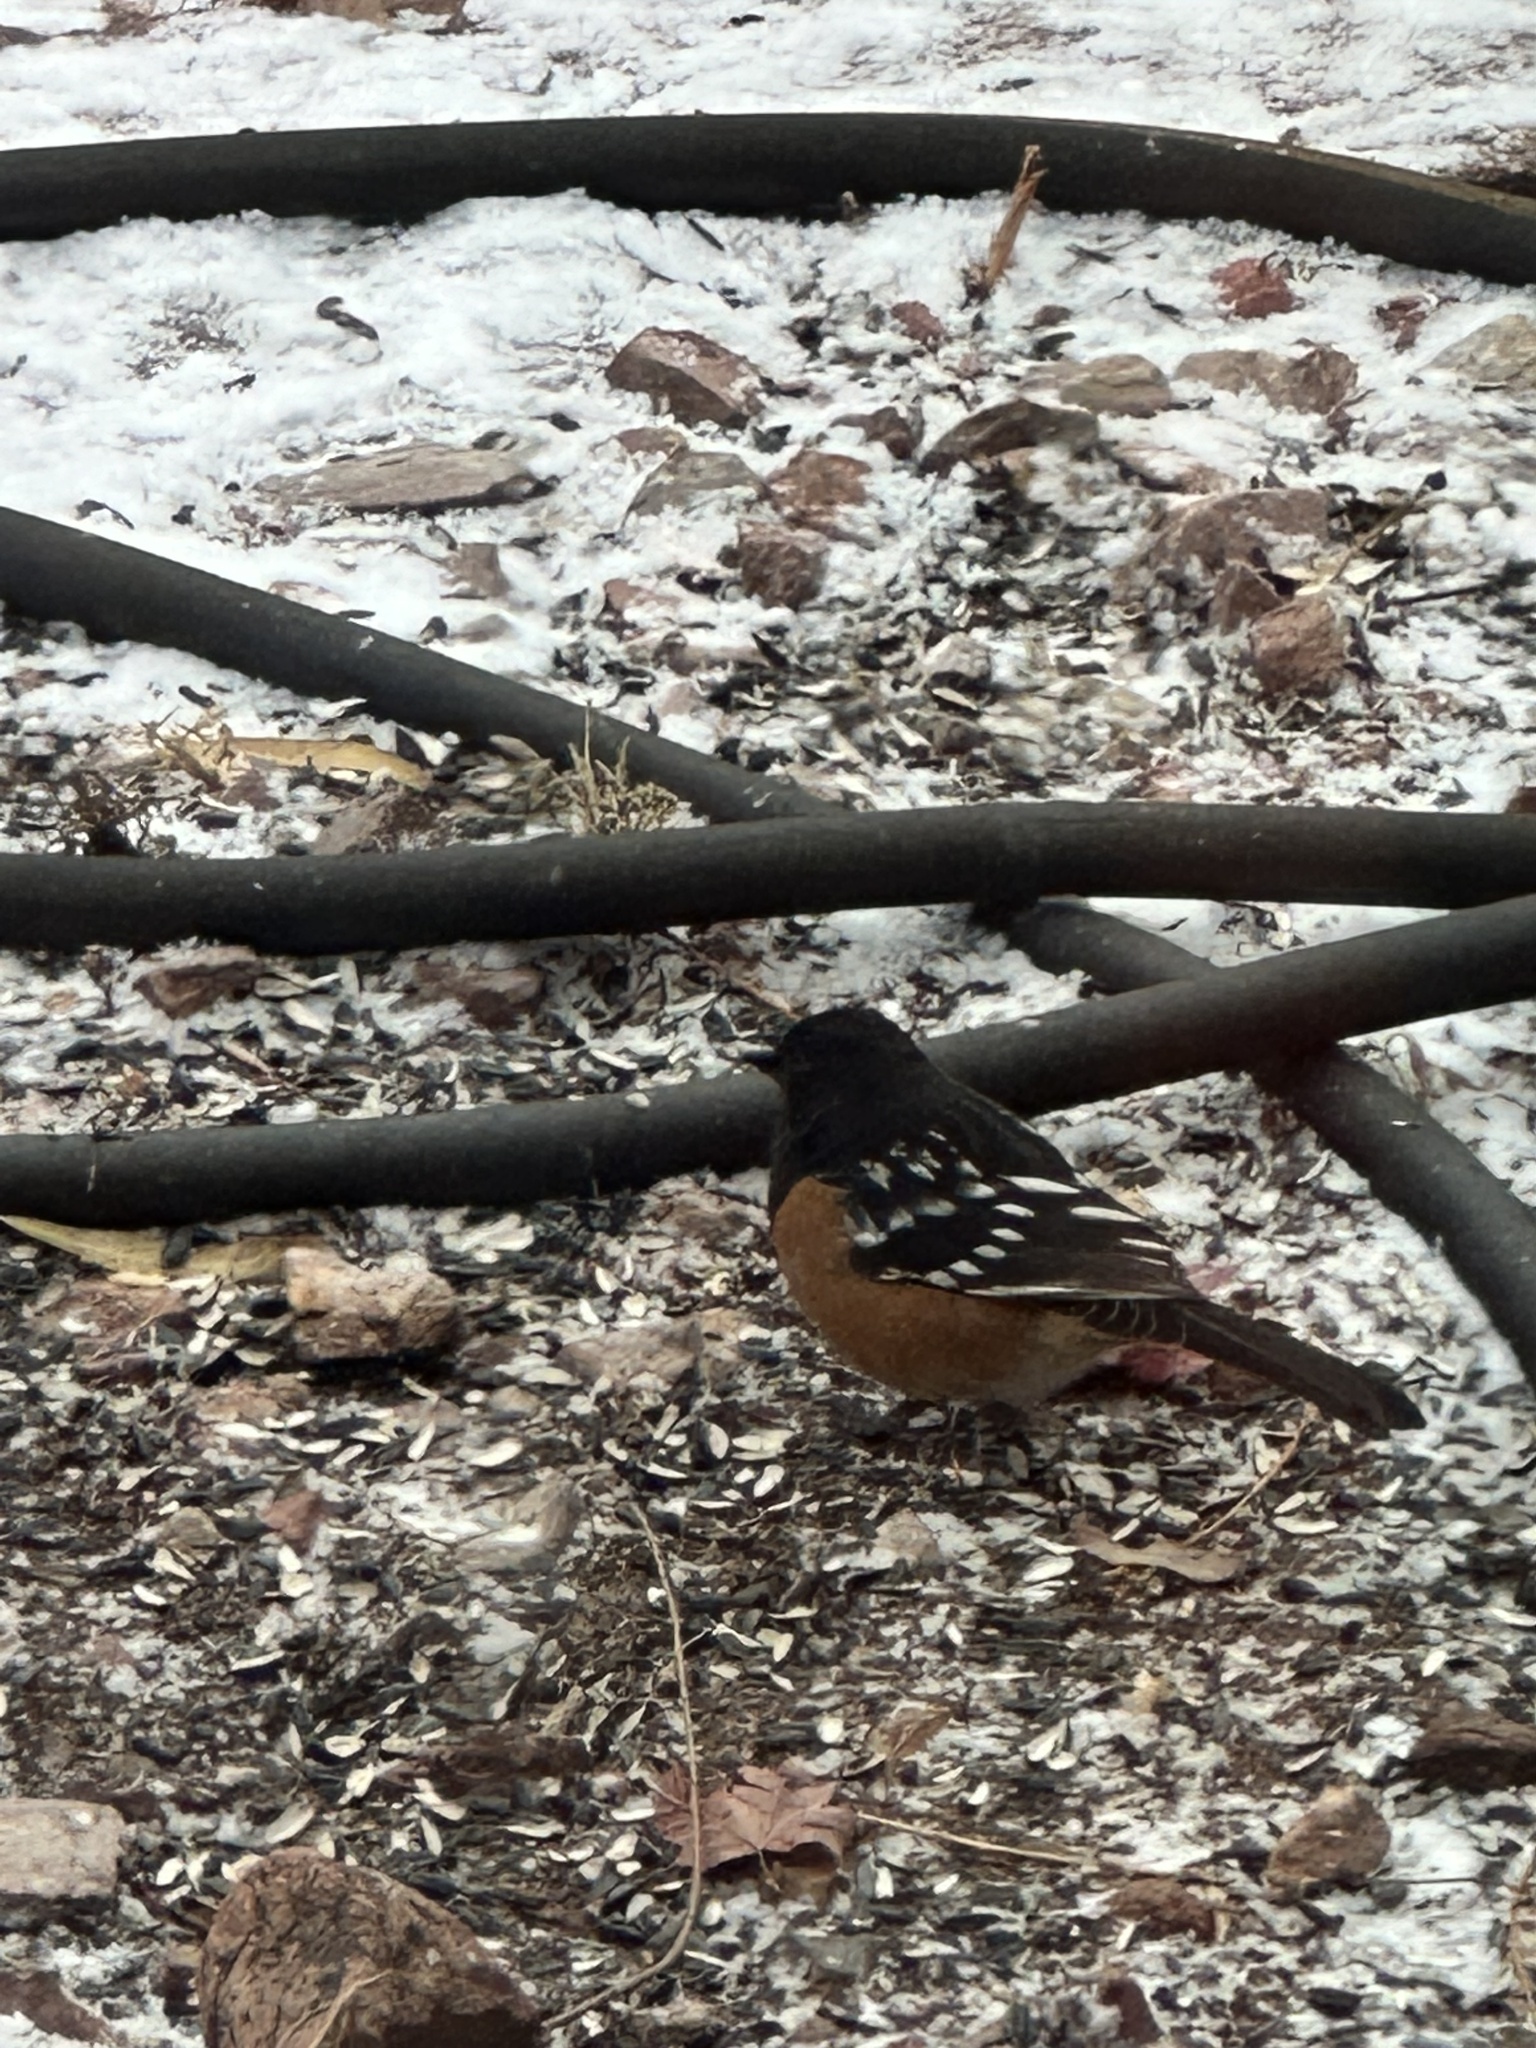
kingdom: Animalia
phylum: Chordata
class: Aves
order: Passeriformes
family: Passerellidae
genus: Pipilo
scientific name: Pipilo maculatus
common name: Spotted towhee
